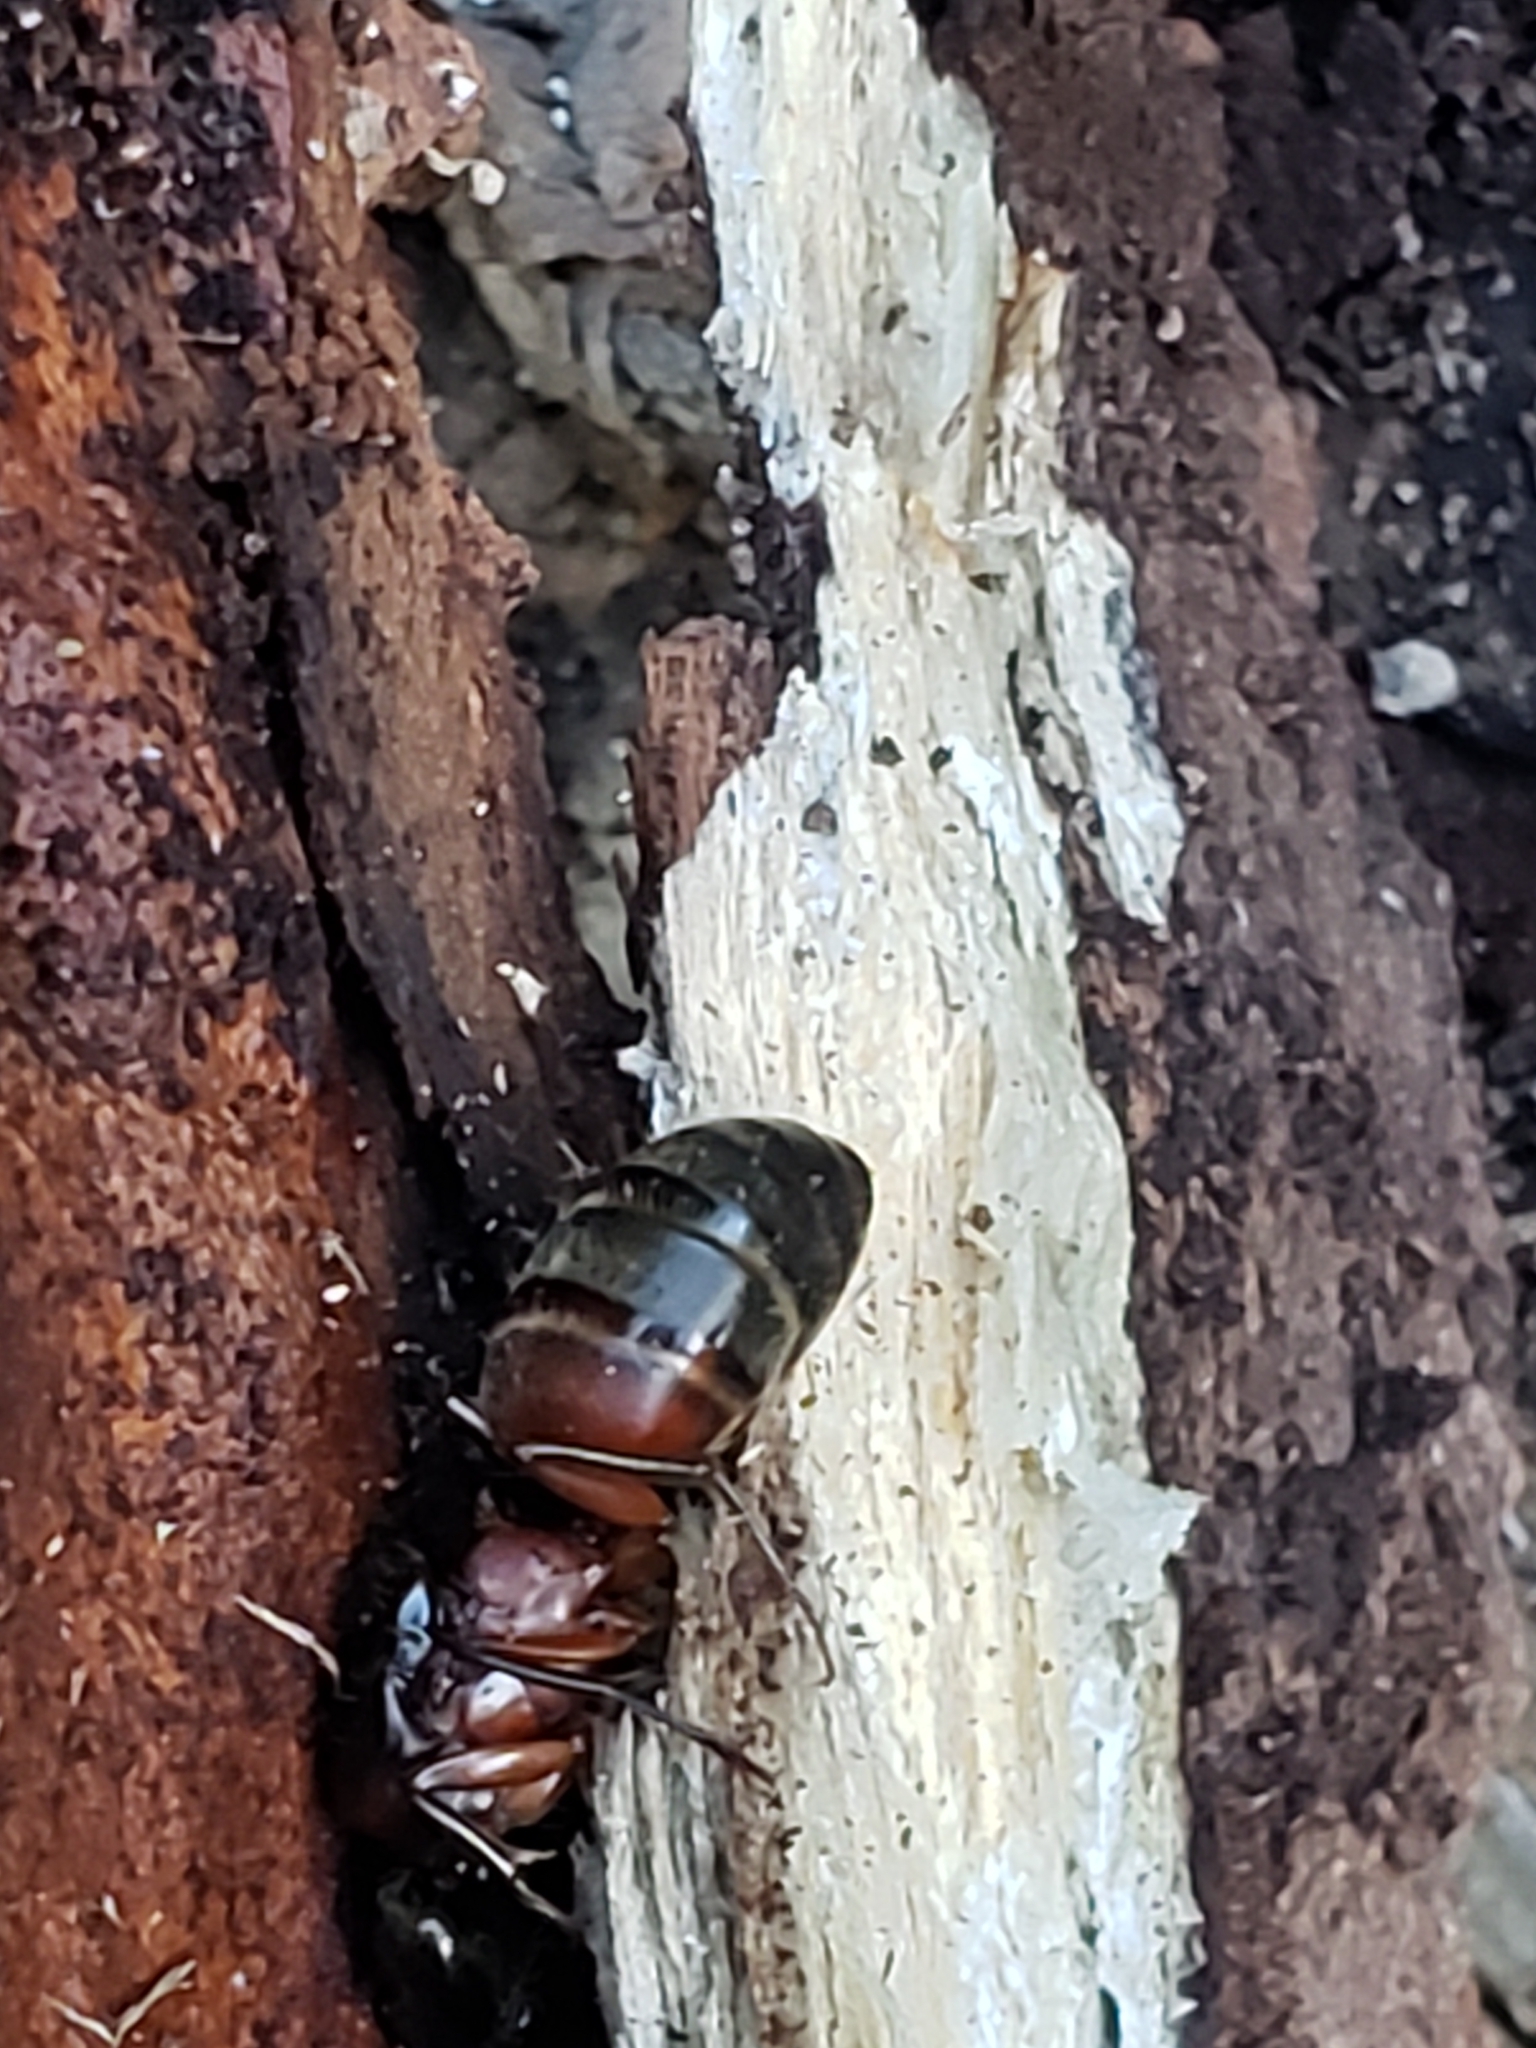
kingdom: Animalia
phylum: Arthropoda
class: Insecta
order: Hymenoptera
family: Formicidae
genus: Camponotus
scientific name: Camponotus chromaiodes
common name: Red carpenter ant
